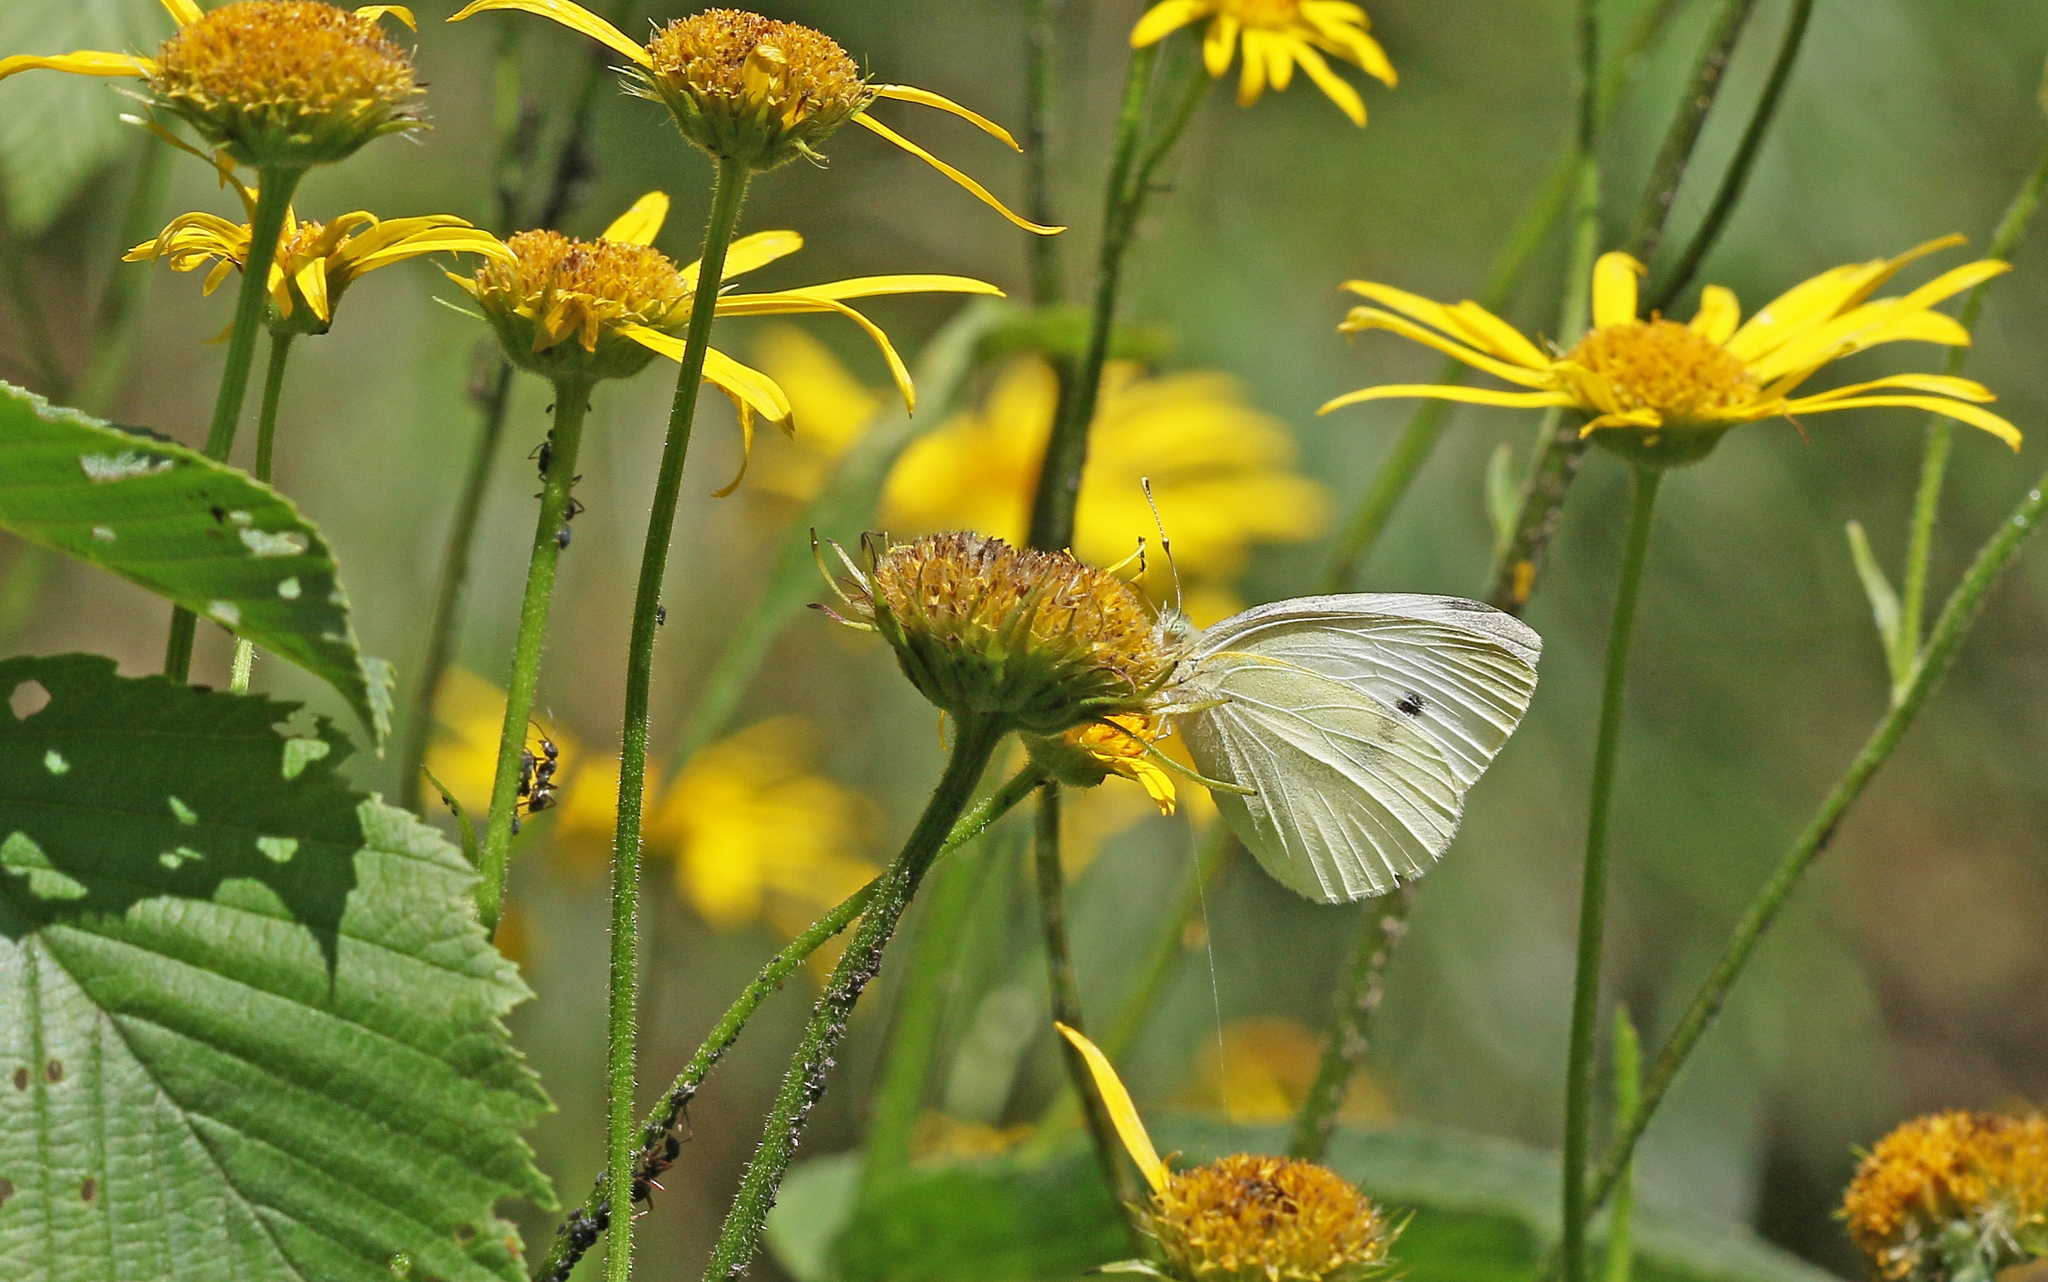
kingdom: Animalia
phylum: Arthropoda
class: Insecta
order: Lepidoptera
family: Pieridae
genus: Pieris
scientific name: Pieris rapae
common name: Small white
